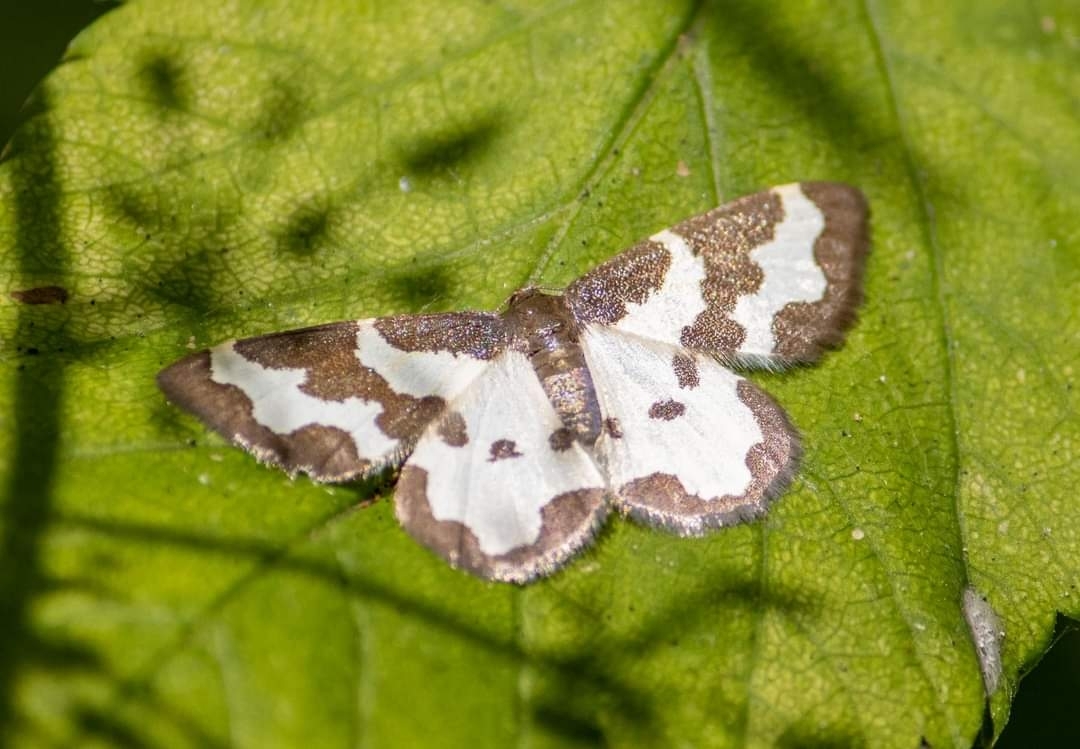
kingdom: Animalia
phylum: Arthropoda
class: Insecta
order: Lepidoptera
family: Geometridae
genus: Lomaspilis
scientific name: Lomaspilis marginata
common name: Clouded border
